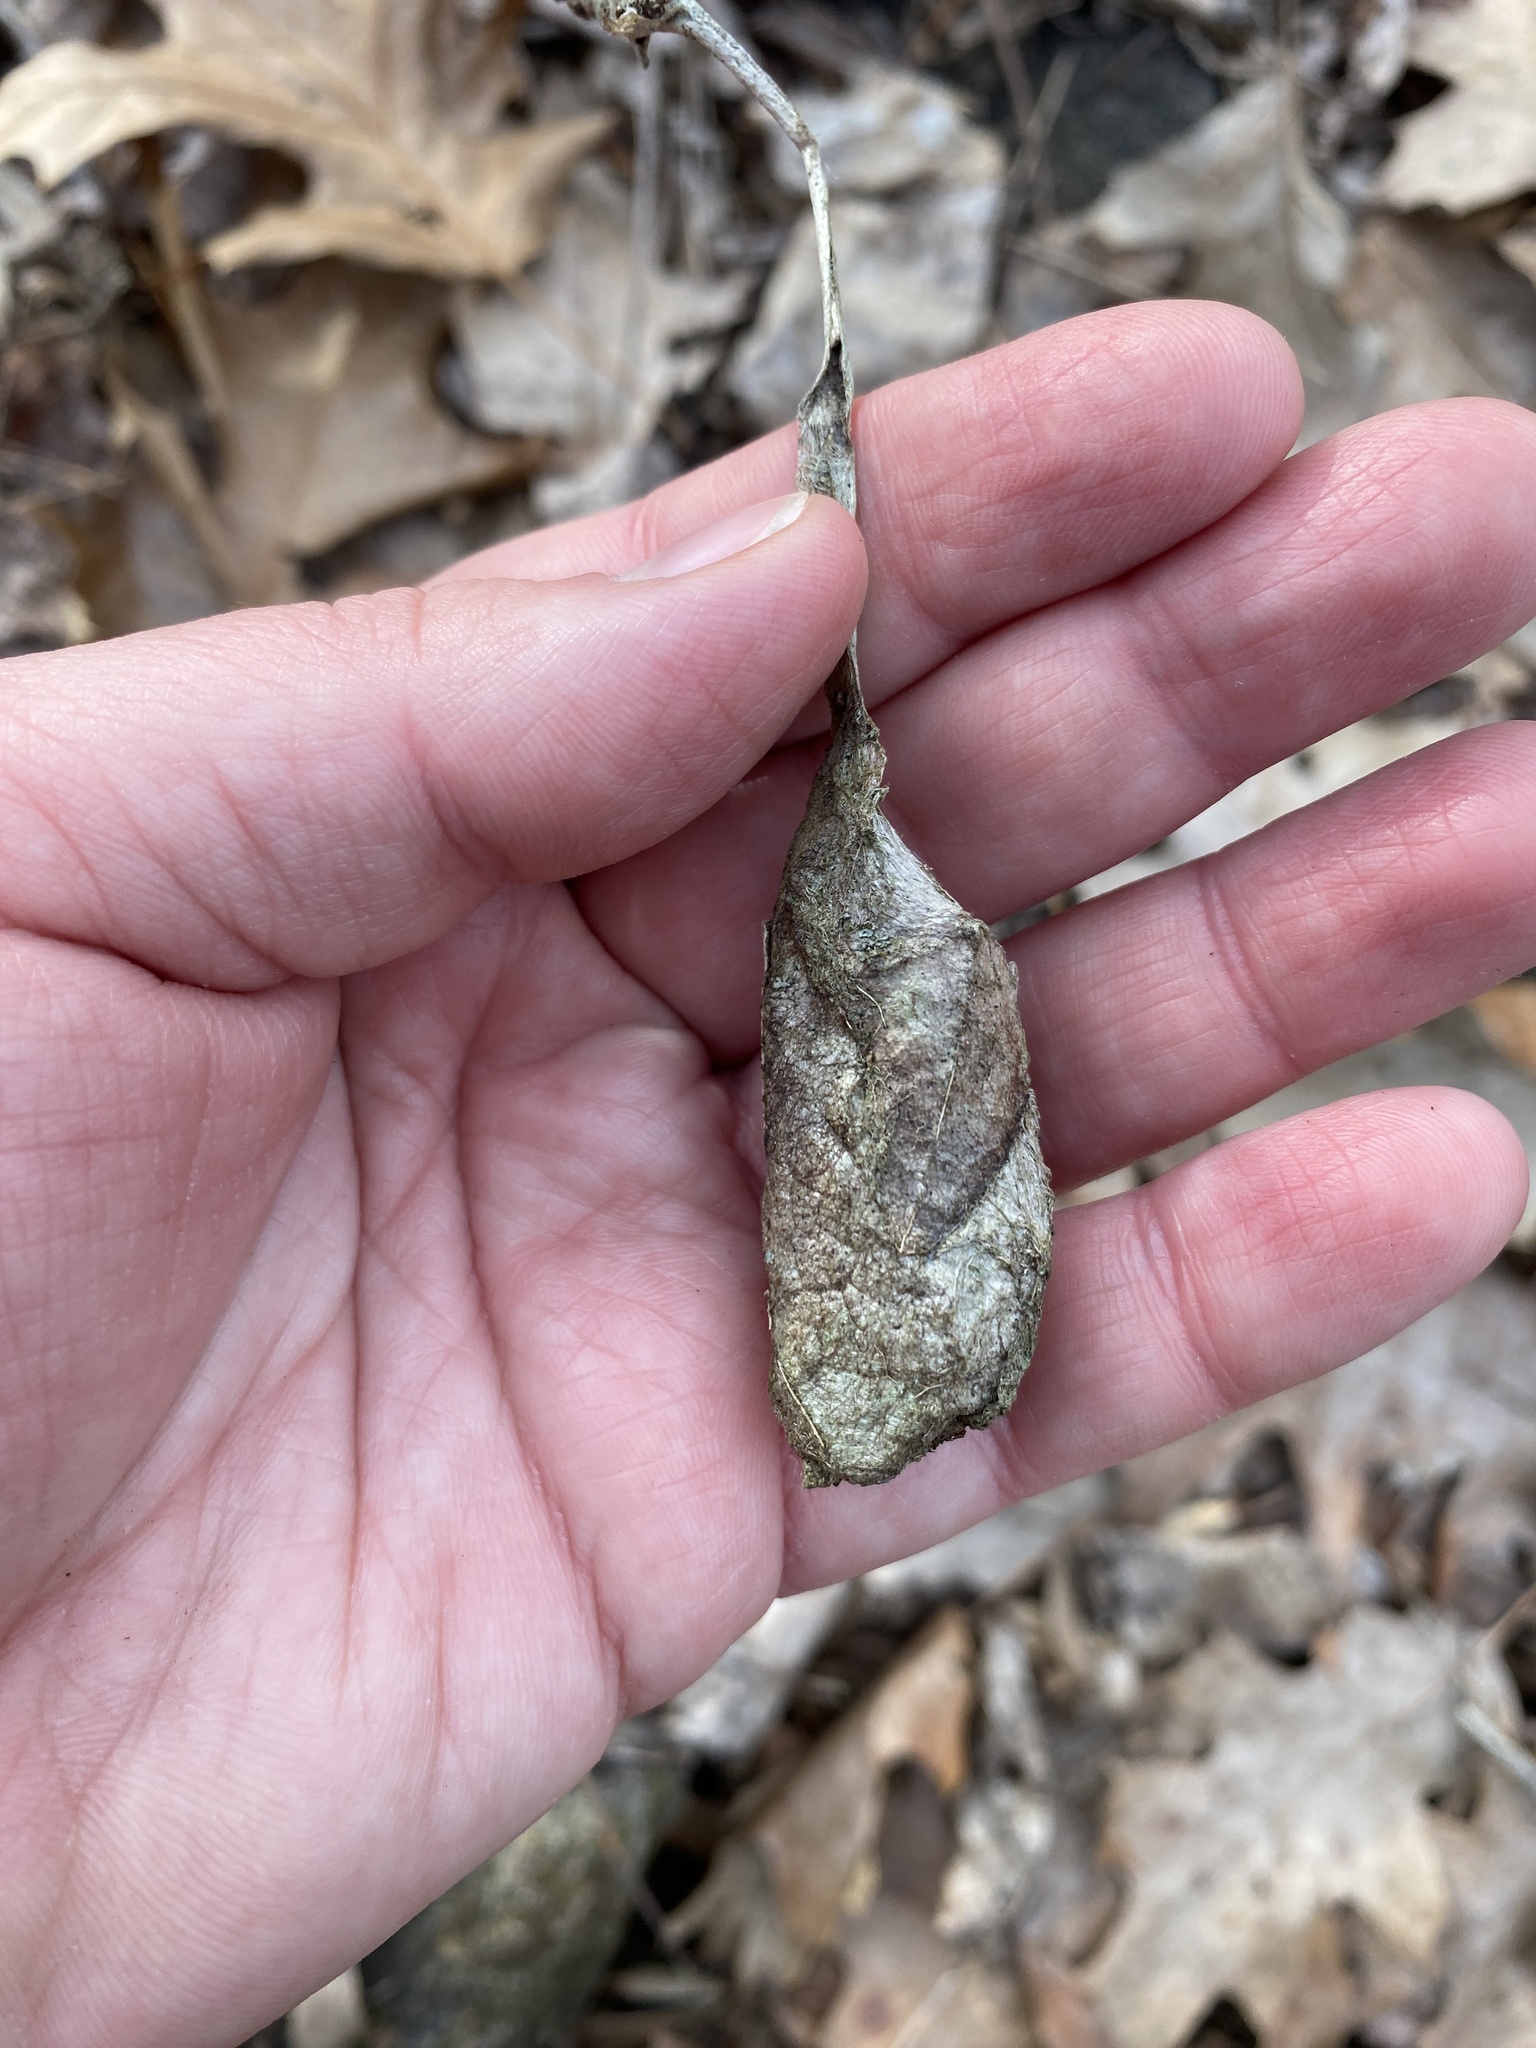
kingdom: Animalia
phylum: Arthropoda
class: Insecta
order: Lepidoptera
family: Saturniidae
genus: Callosamia
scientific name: Callosamia promethea
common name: Promethea silkmoth
